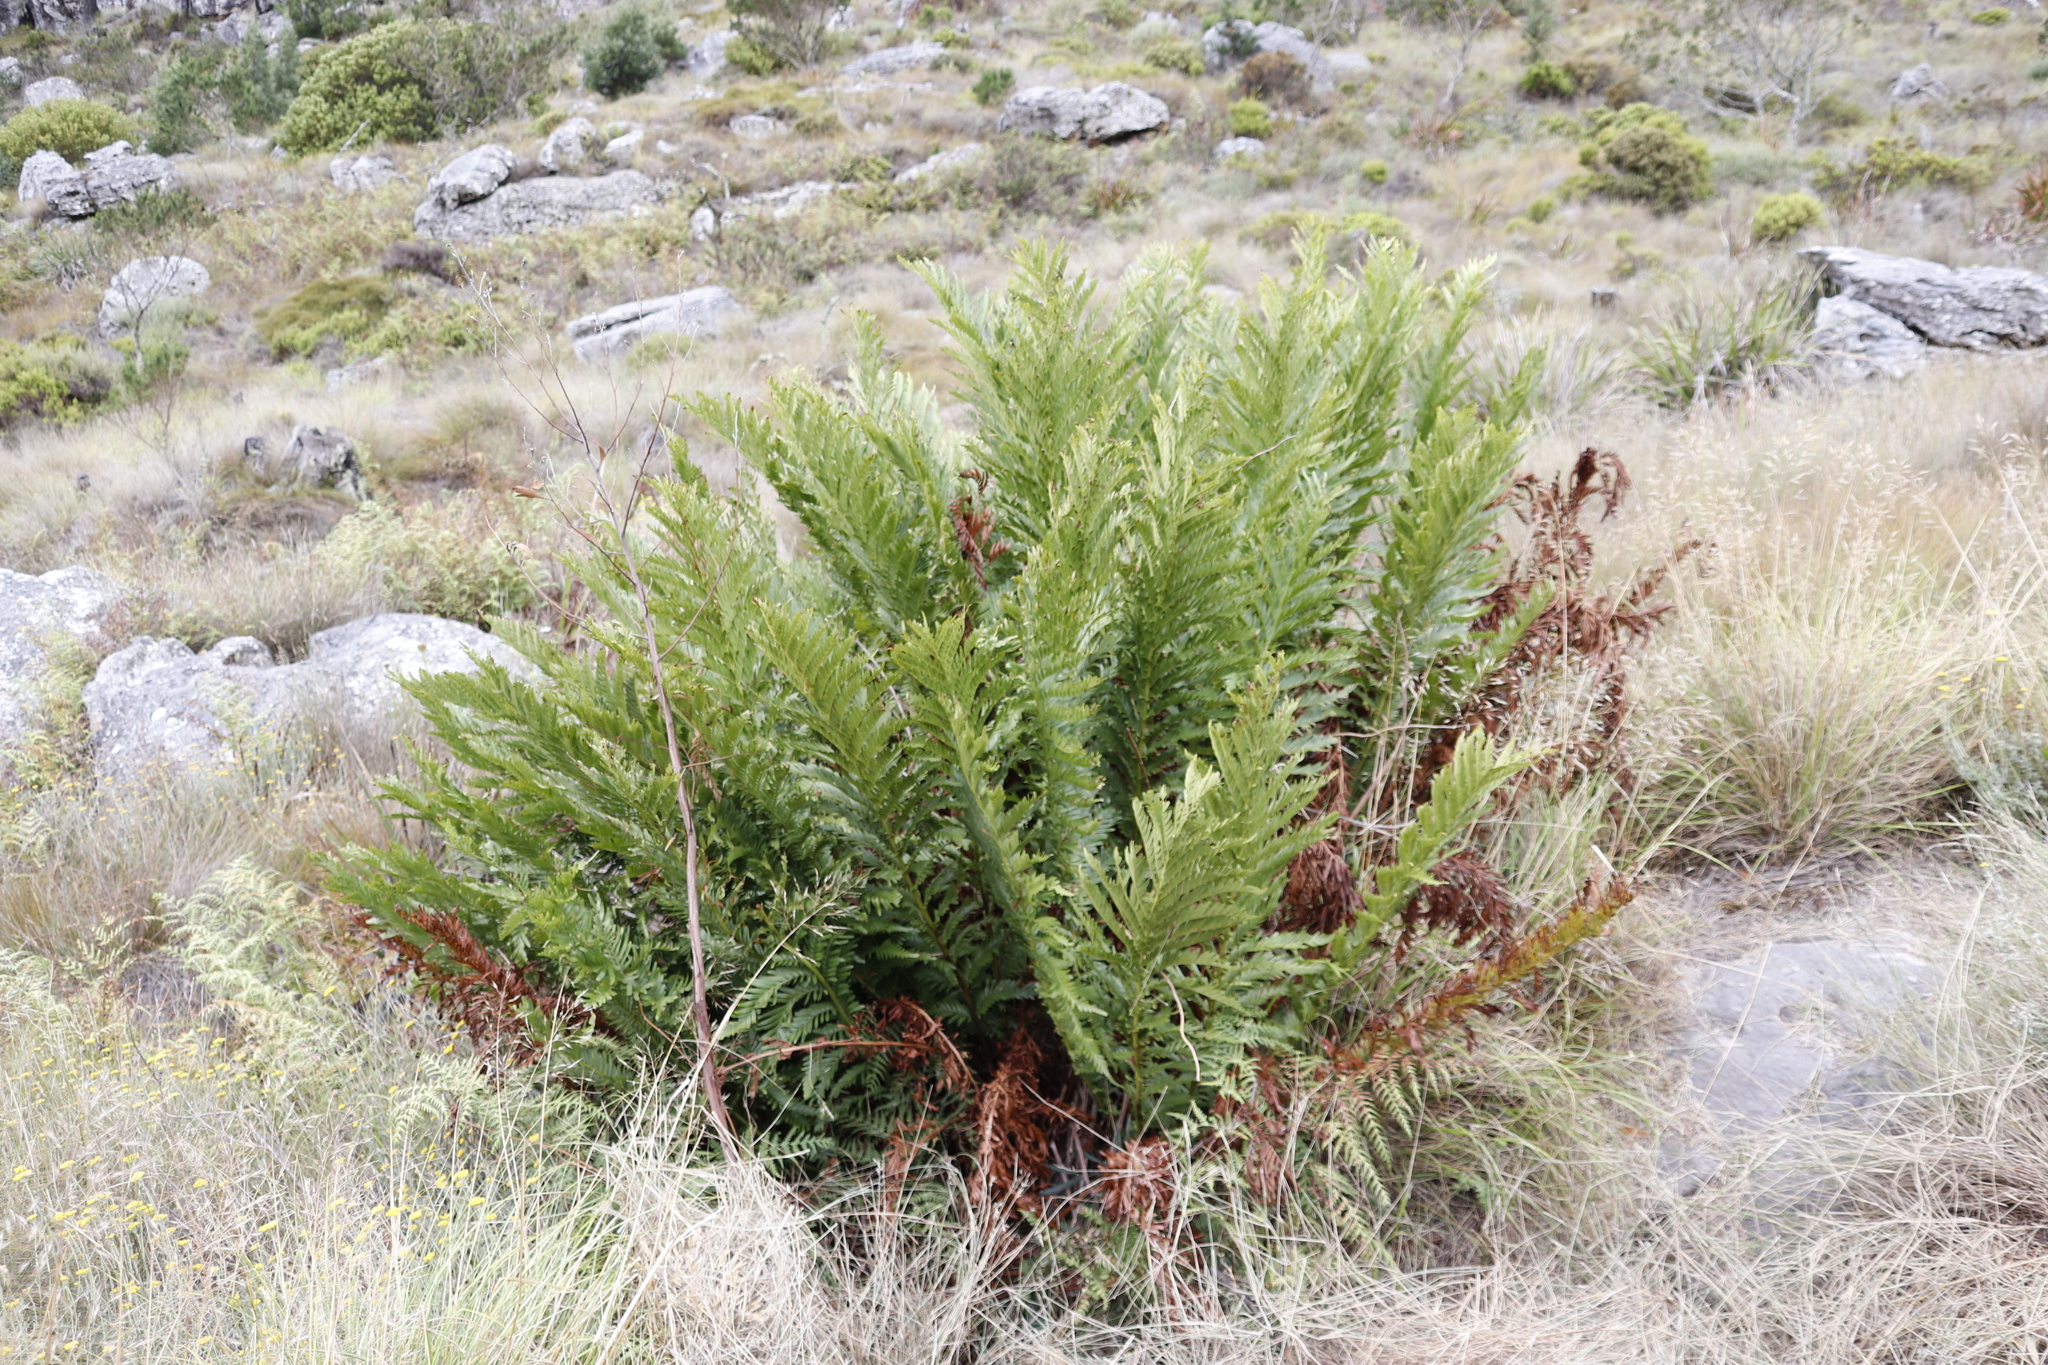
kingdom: Plantae
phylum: Tracheophyta
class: Polypodiopsida
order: Osmundales
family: Osmundaceae
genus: Todea
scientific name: Todea barbara
